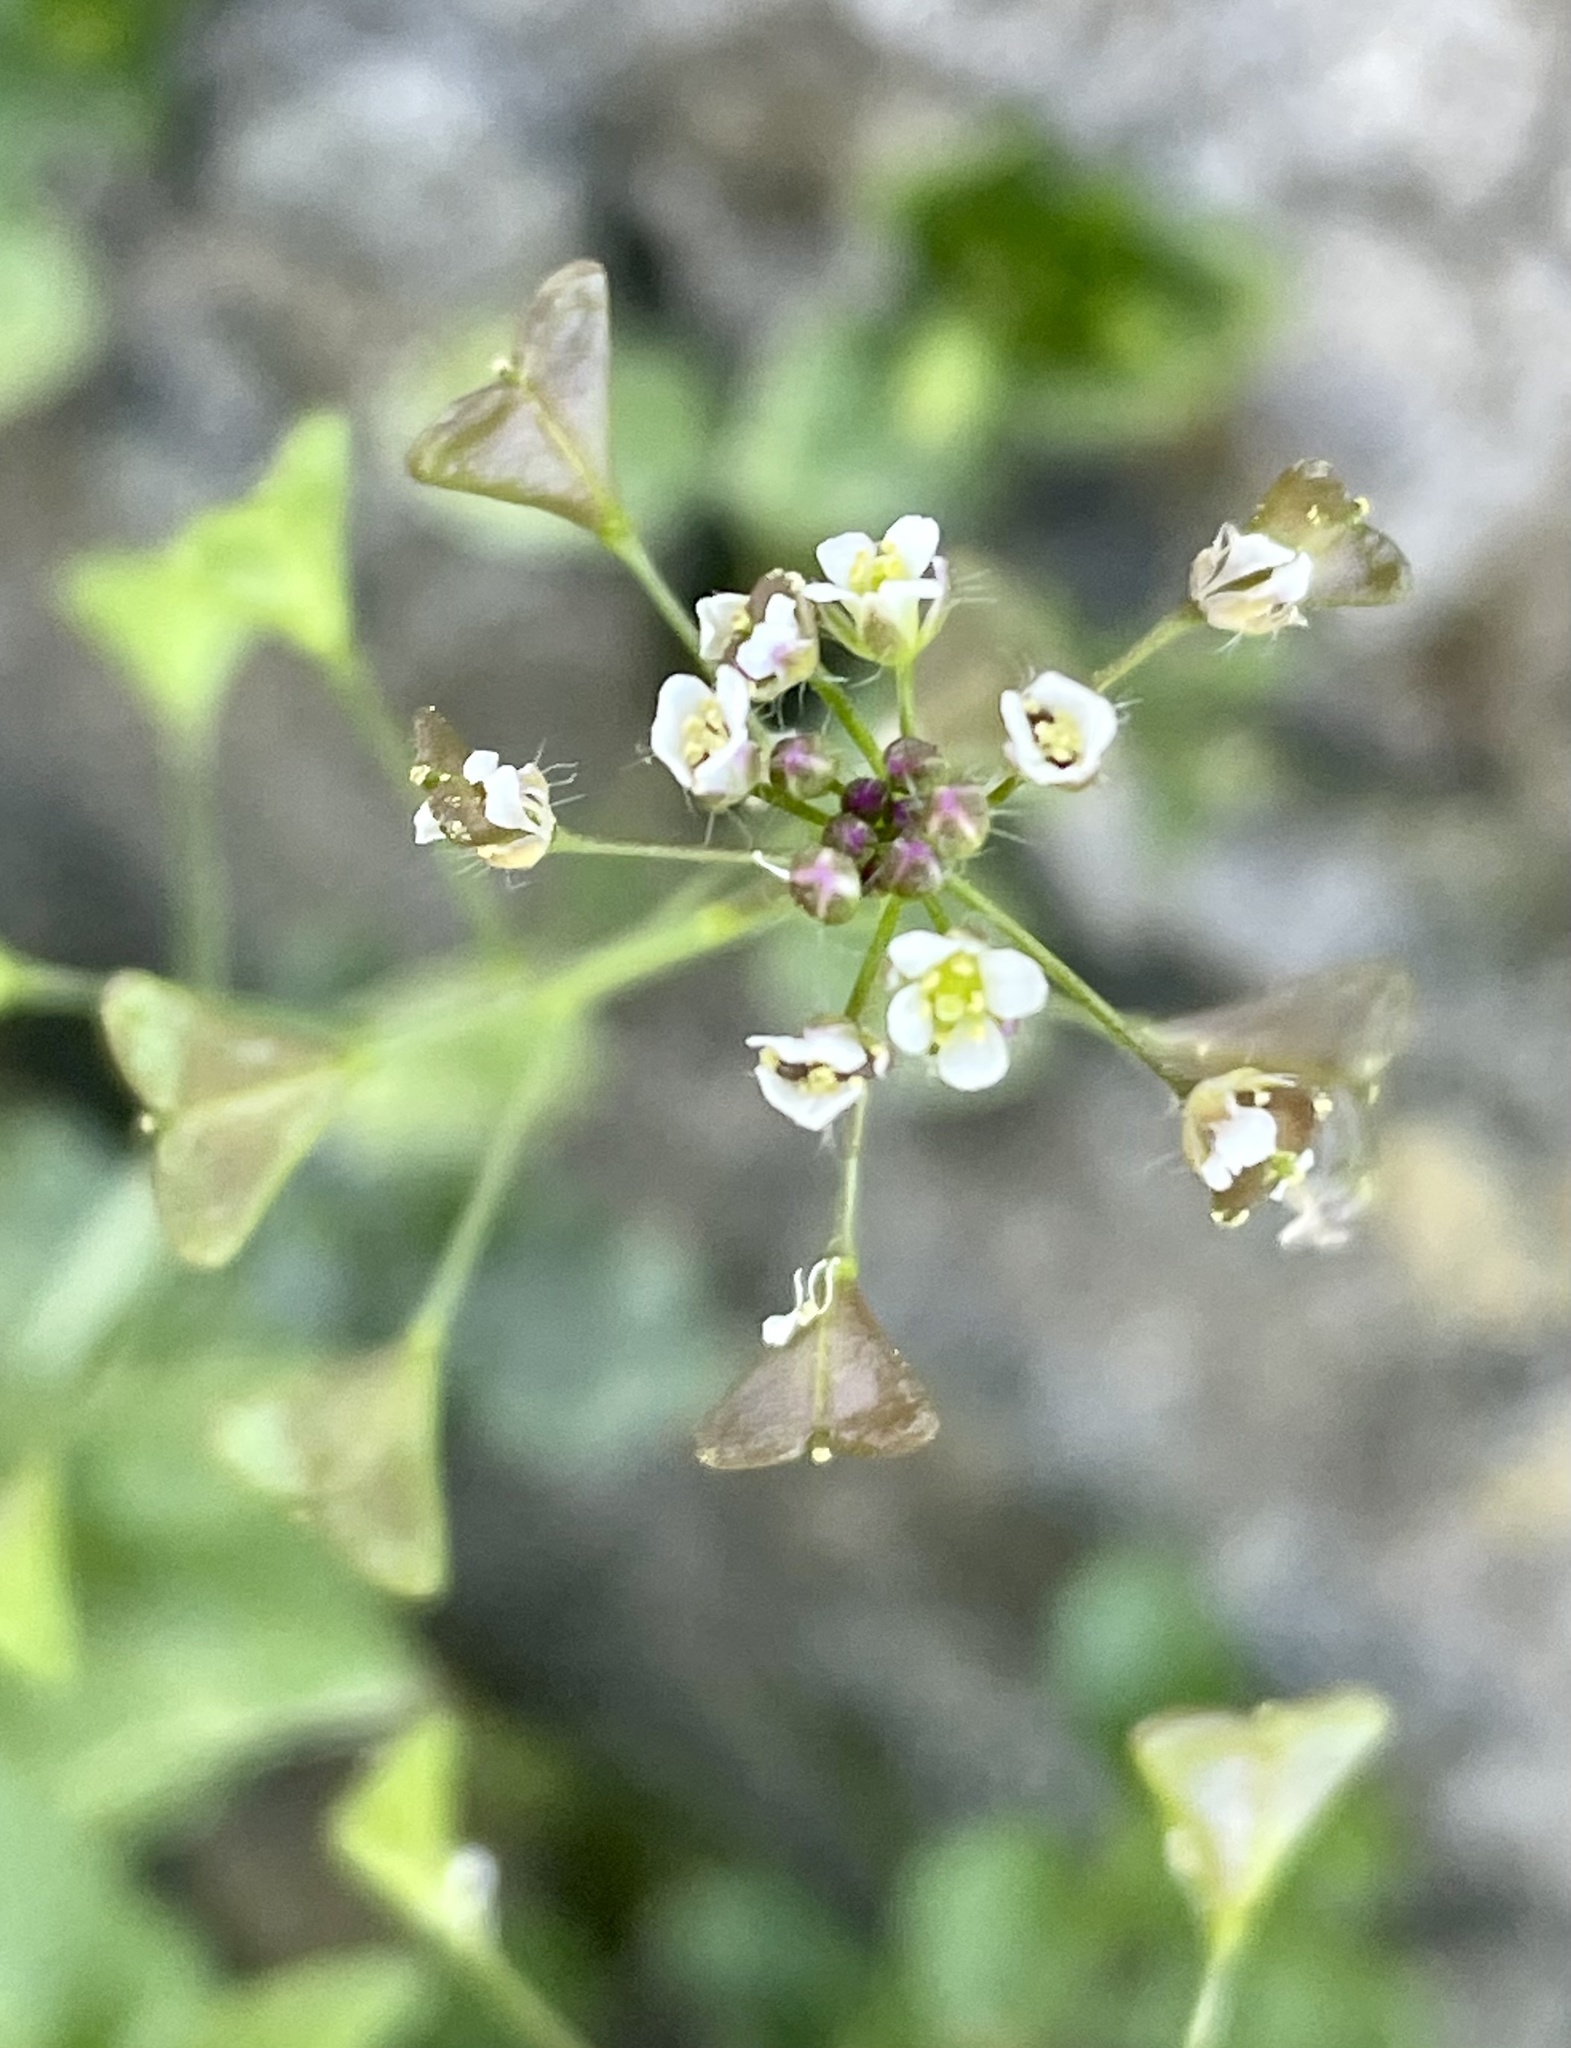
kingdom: Plantae
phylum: Tracheophyta
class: Magnoliopsida
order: Brassicales
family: Brassicaceae
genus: Capsella
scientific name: Capsella bursa-pastoris
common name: Shepherd's purse
